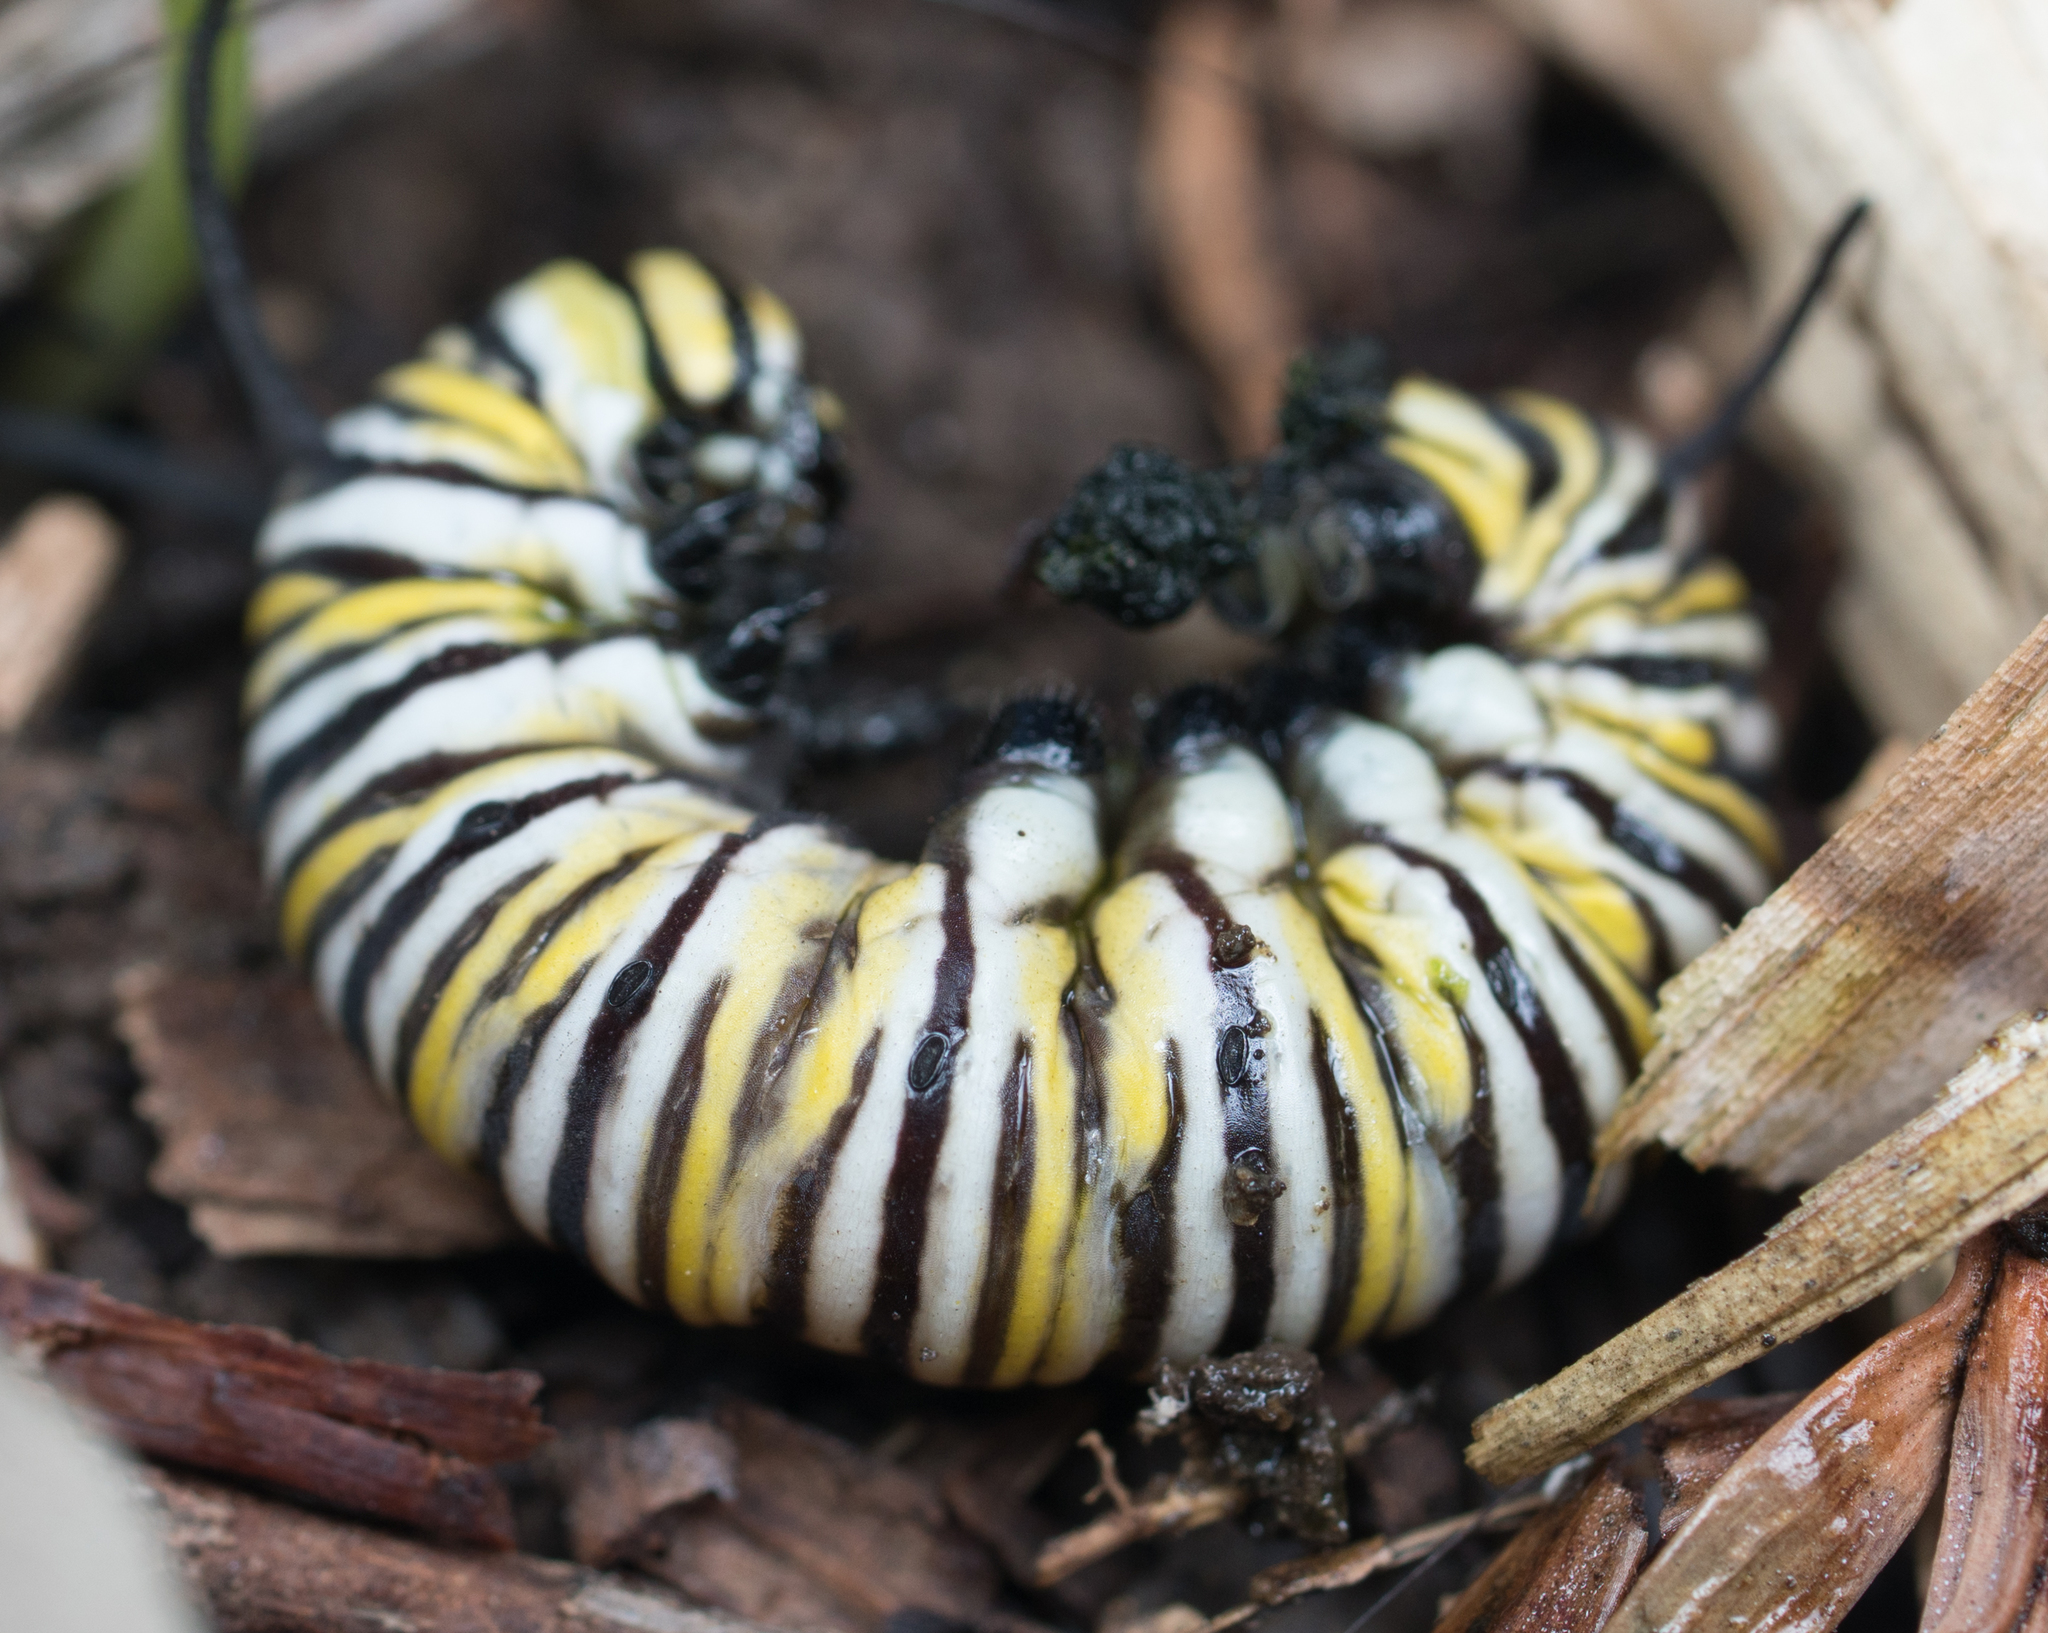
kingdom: Animalia
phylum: Arthropoda
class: Insecta
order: Lepidoptera
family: Nymphalidae
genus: Danaus
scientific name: Danaus plexippus
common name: Monarch
